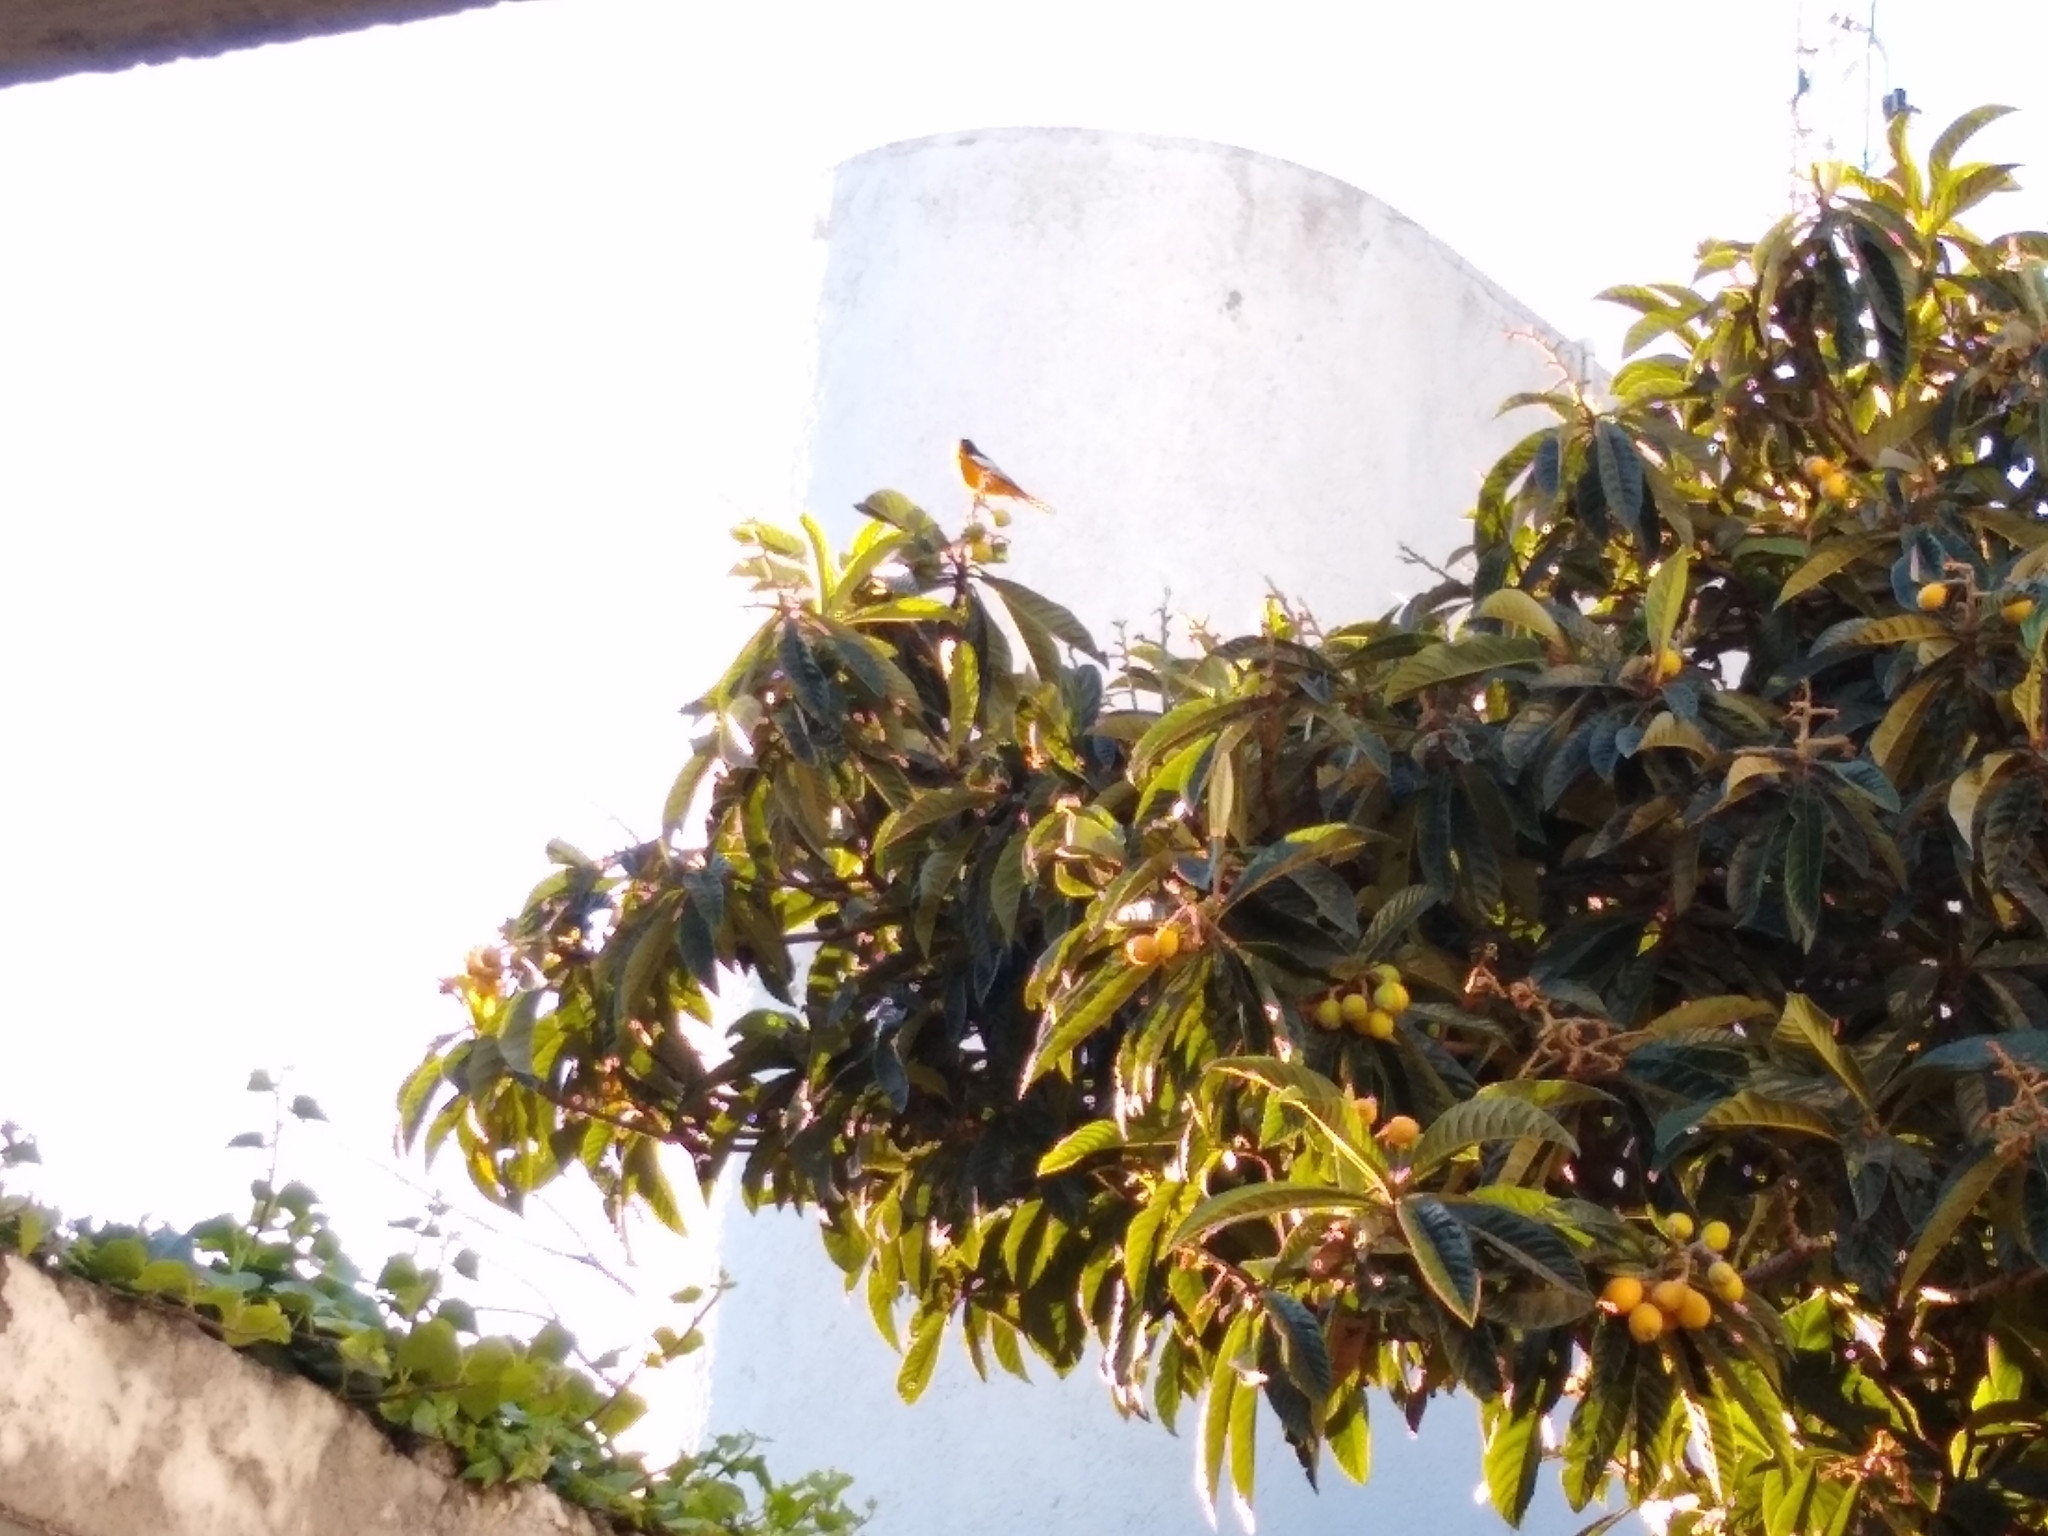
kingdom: Animalia
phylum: Chordata
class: Aves
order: Passeriformes
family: Icteridae
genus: Icterus
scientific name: Icterus bullockii
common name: Bullock's oriole
